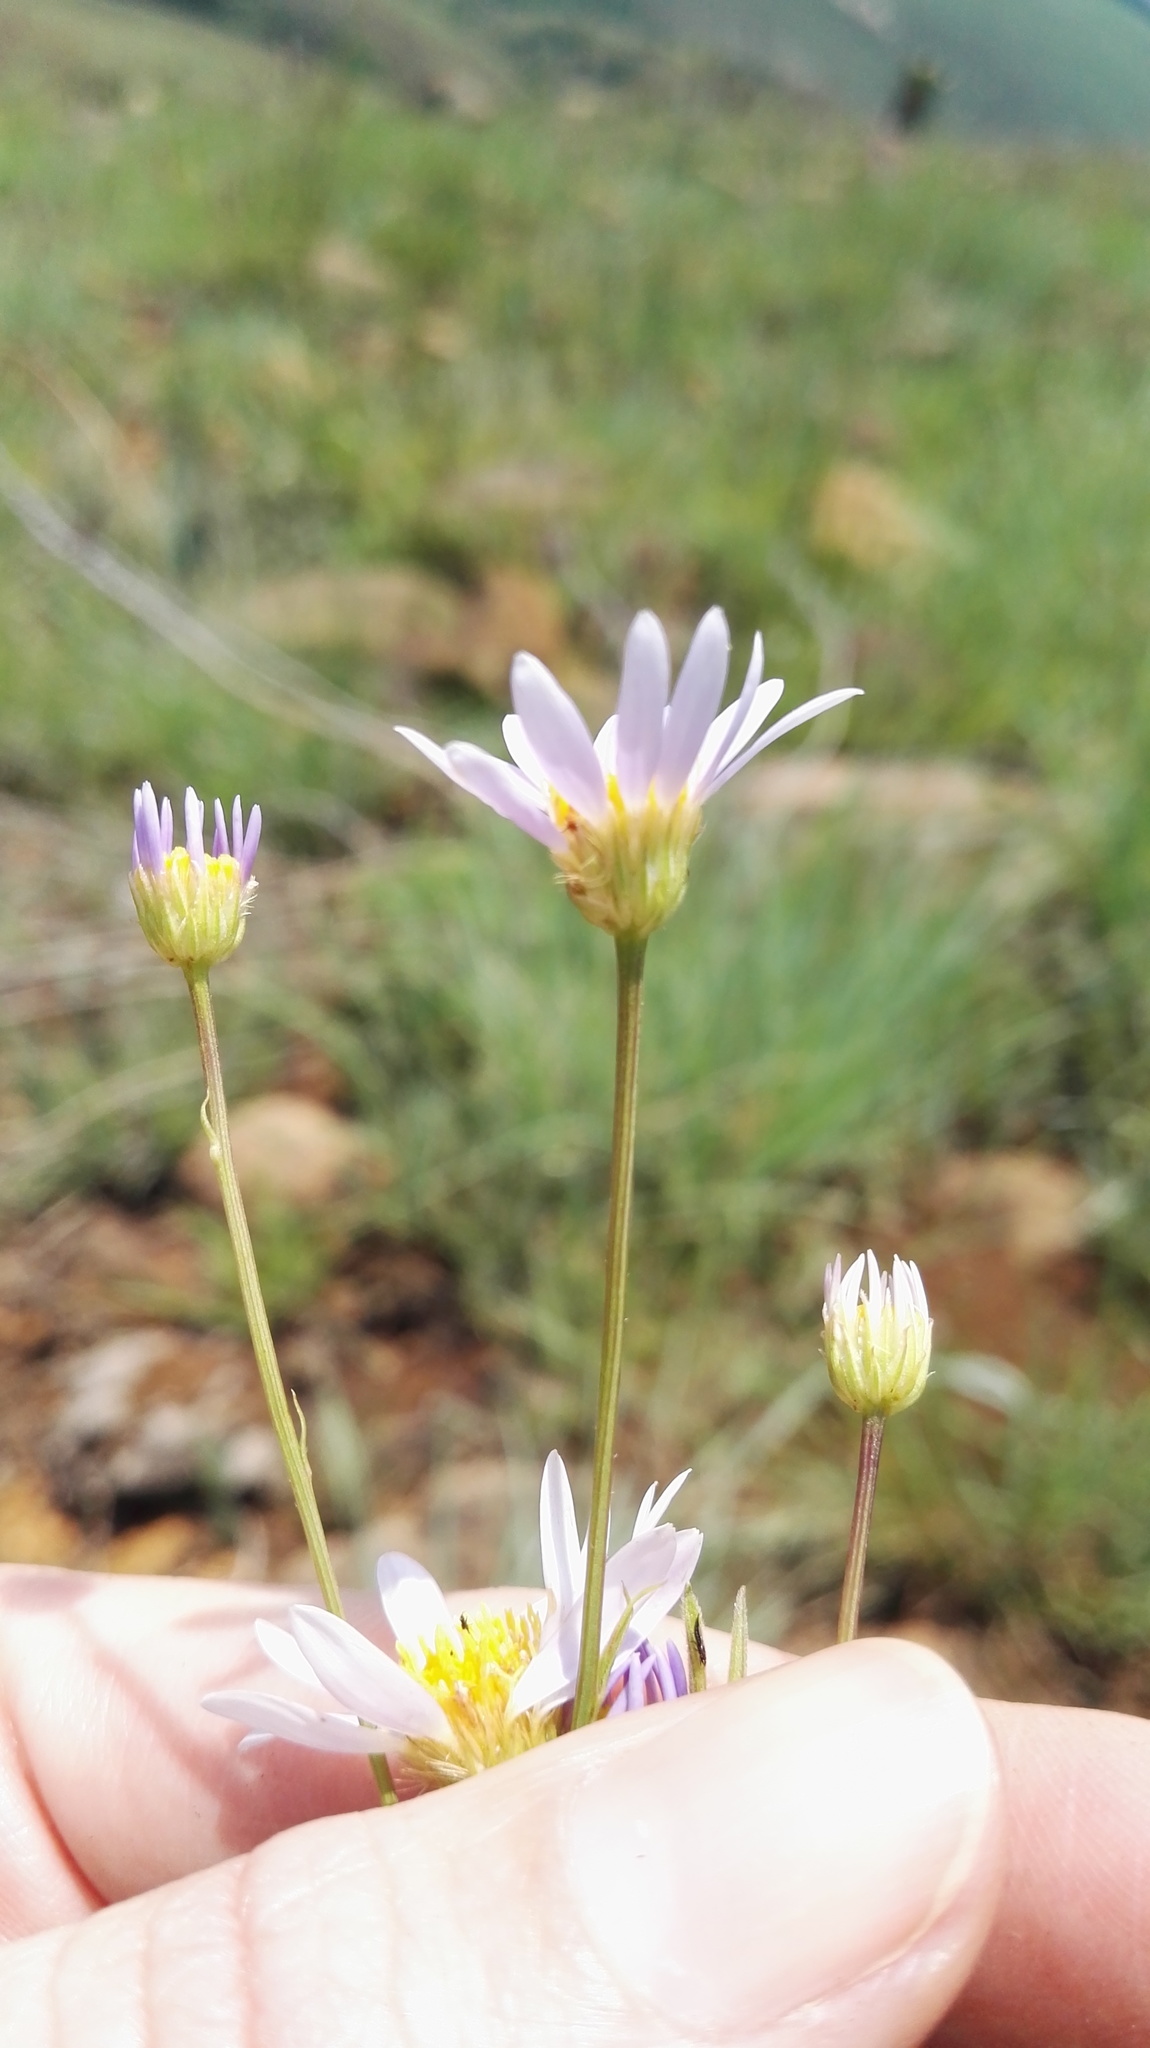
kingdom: Plantae
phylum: Tracheophyta
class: Magnoliopsida
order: Asterales
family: Asteraceae
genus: Afroaster
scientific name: Afroaster hispidus
